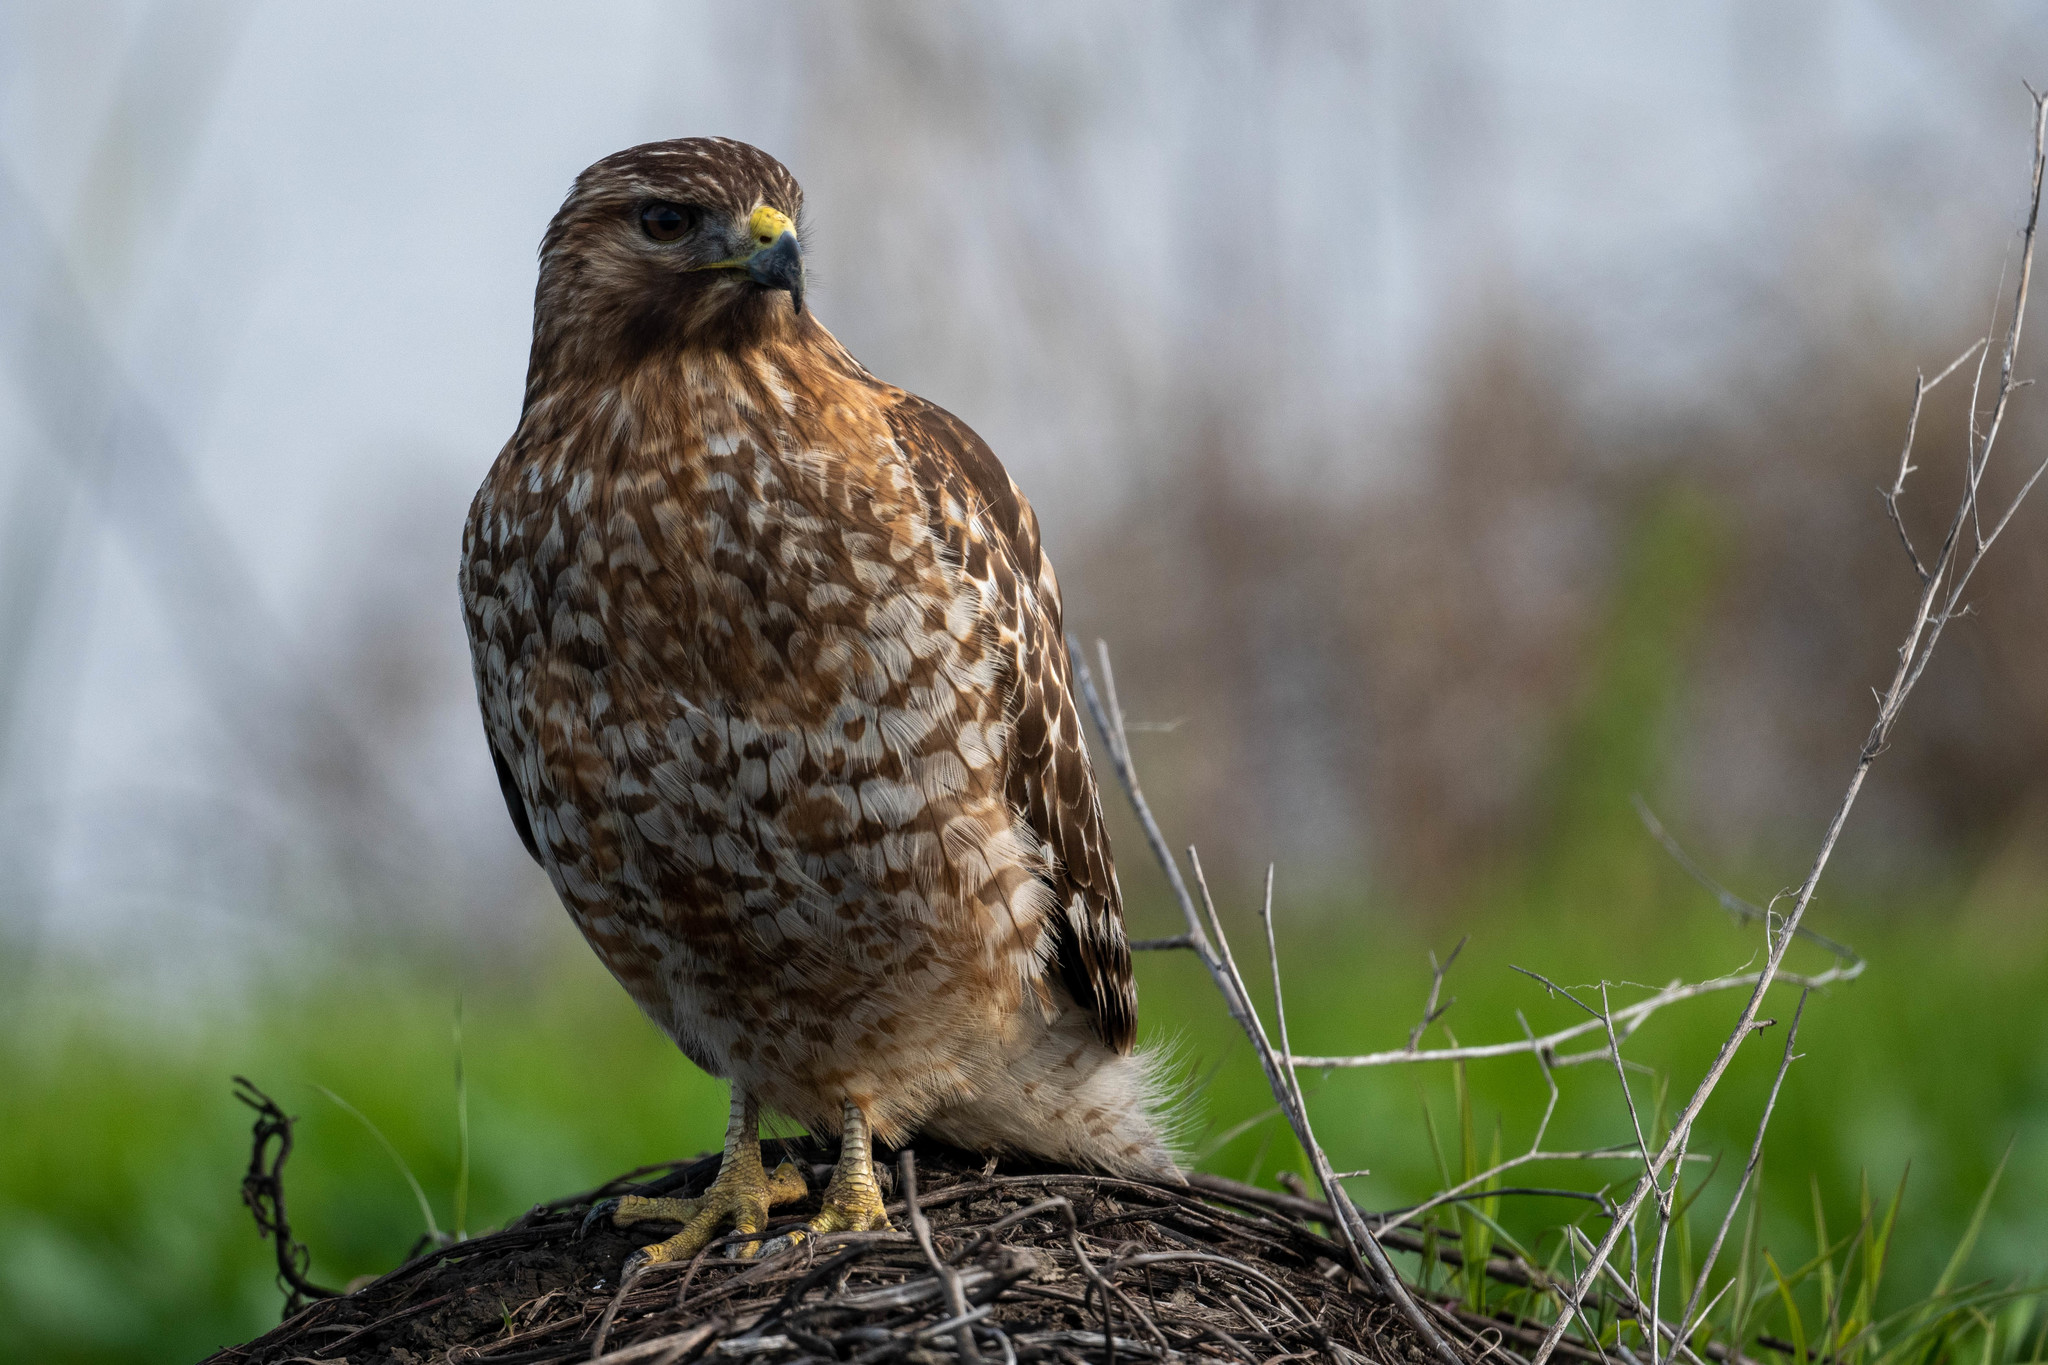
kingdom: Animalia
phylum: Chordata
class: Aves
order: Accipitriformes
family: Accipitridae
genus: Buteo
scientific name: Buteo lineatus
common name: Red-shouldered hawk
